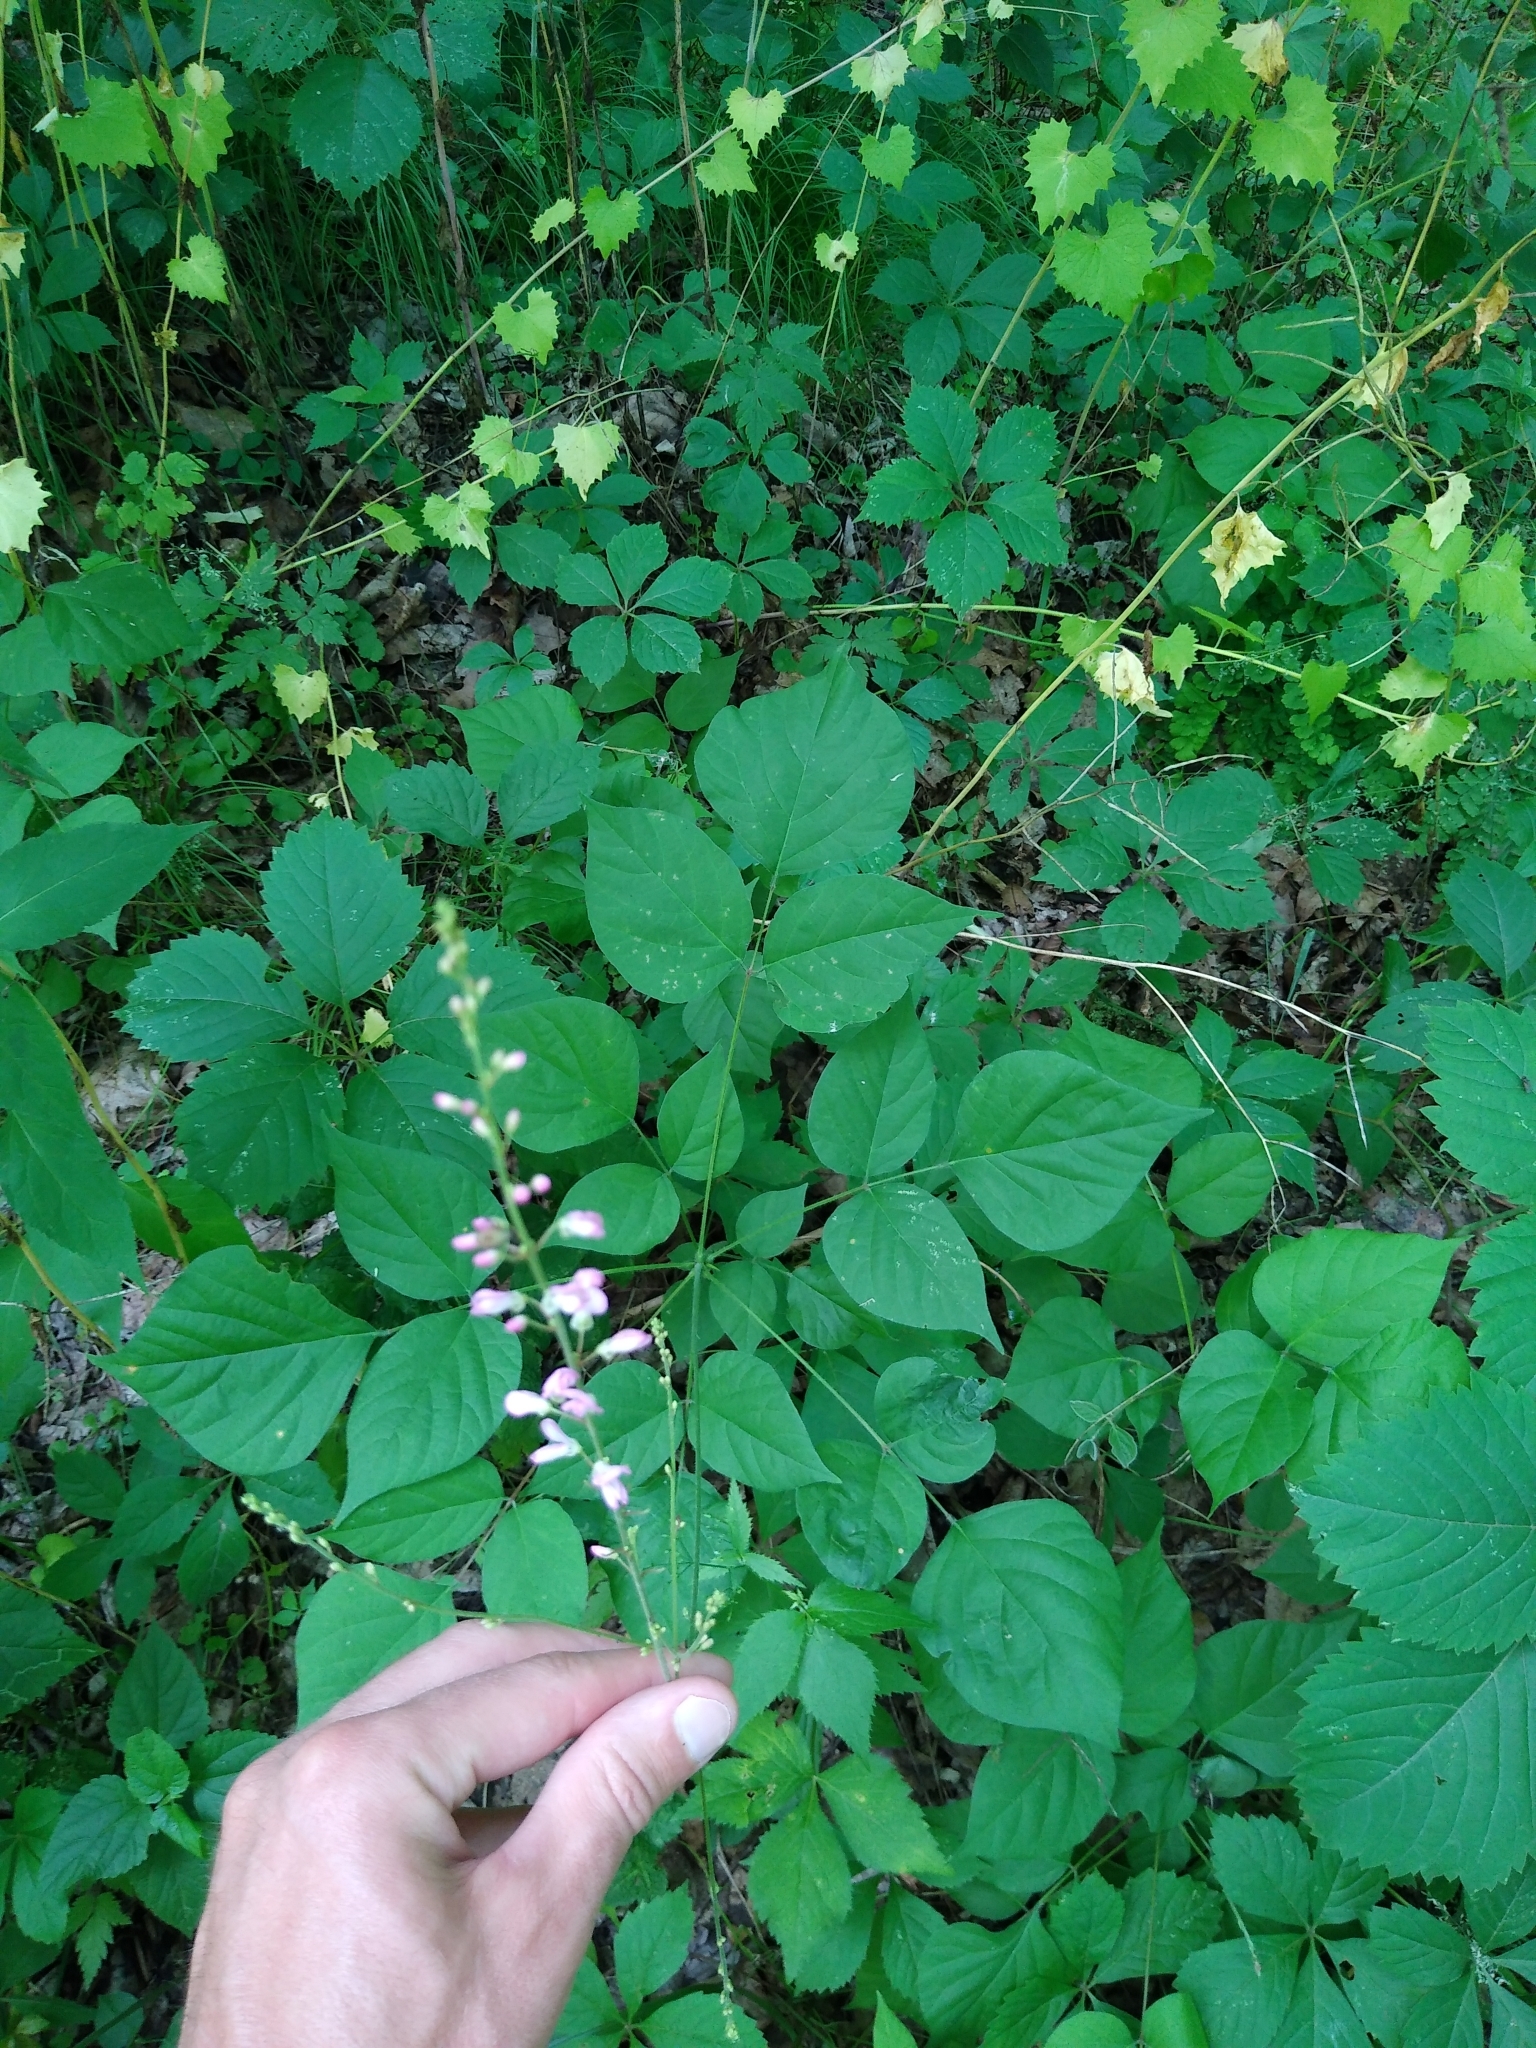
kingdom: Plantae
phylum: Tracheophyta
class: Magnoliopsida
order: Fabales
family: Fabaceae
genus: Hylodesmum
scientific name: Hylodesmum glutinosum
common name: Clustered-leaved tick-trefoil
